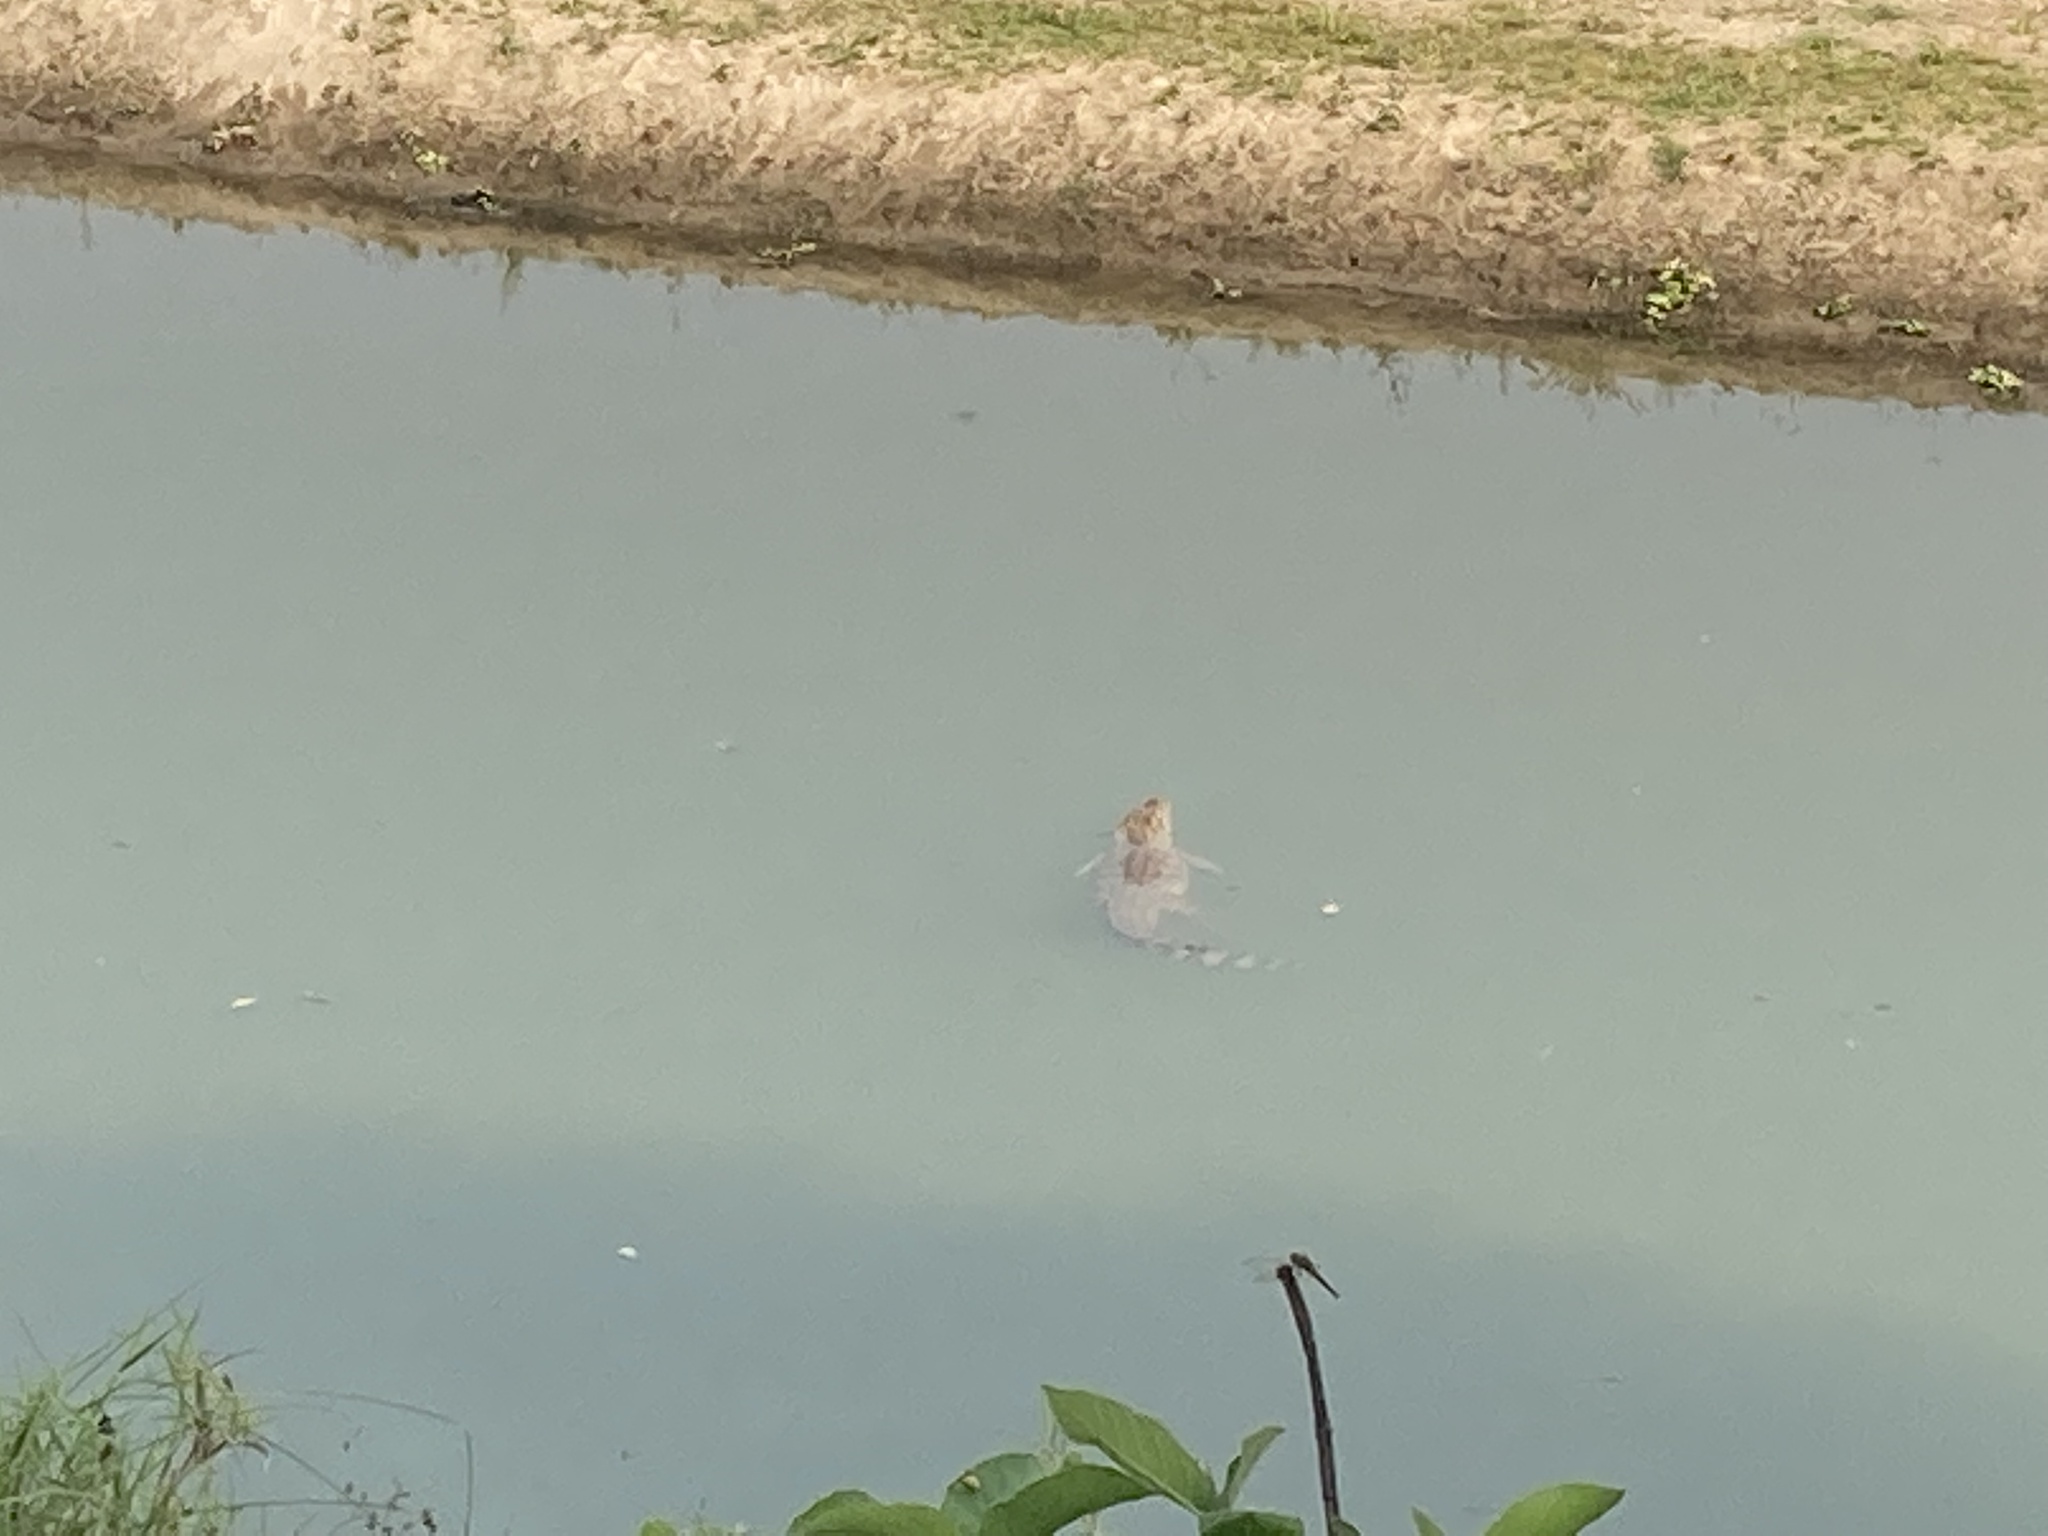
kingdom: Animalia
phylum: Chordata
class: Crocodylia
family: Crocodylidae
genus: Crocodylus
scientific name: Crocodylus palustris
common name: Mugger crocodile
